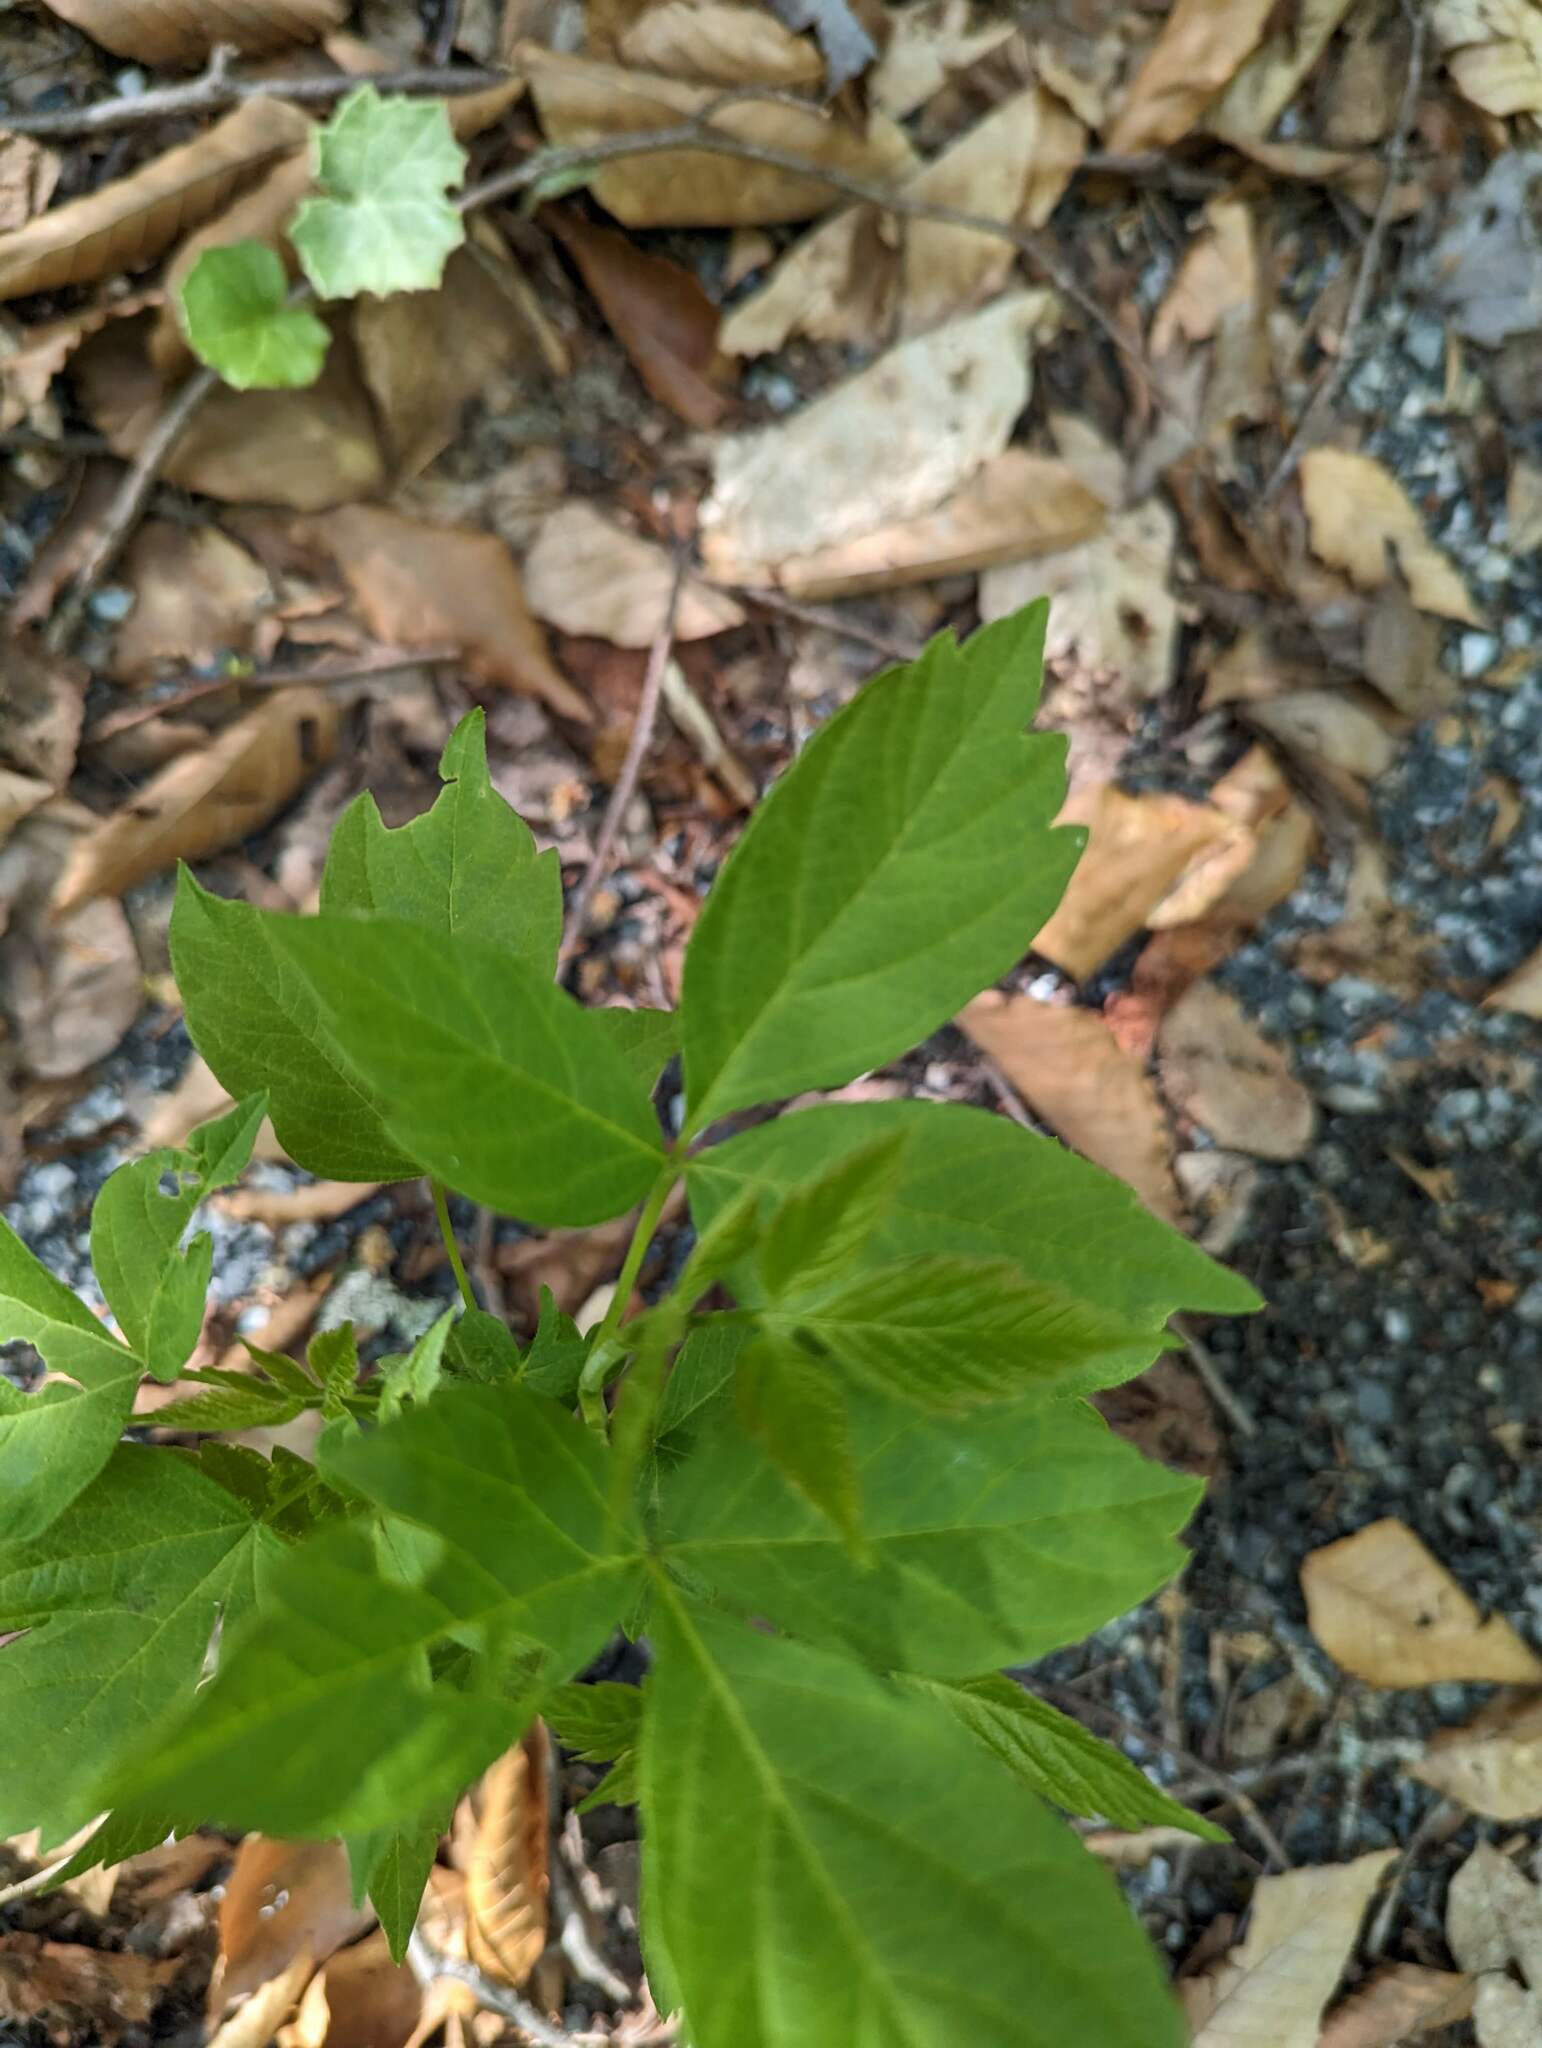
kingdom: Plantae
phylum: Tracheophyta
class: Magnoliopsida
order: Sapindales
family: Sapindaceae
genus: Acer
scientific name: Acer negundo
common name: Ashleaf maple
